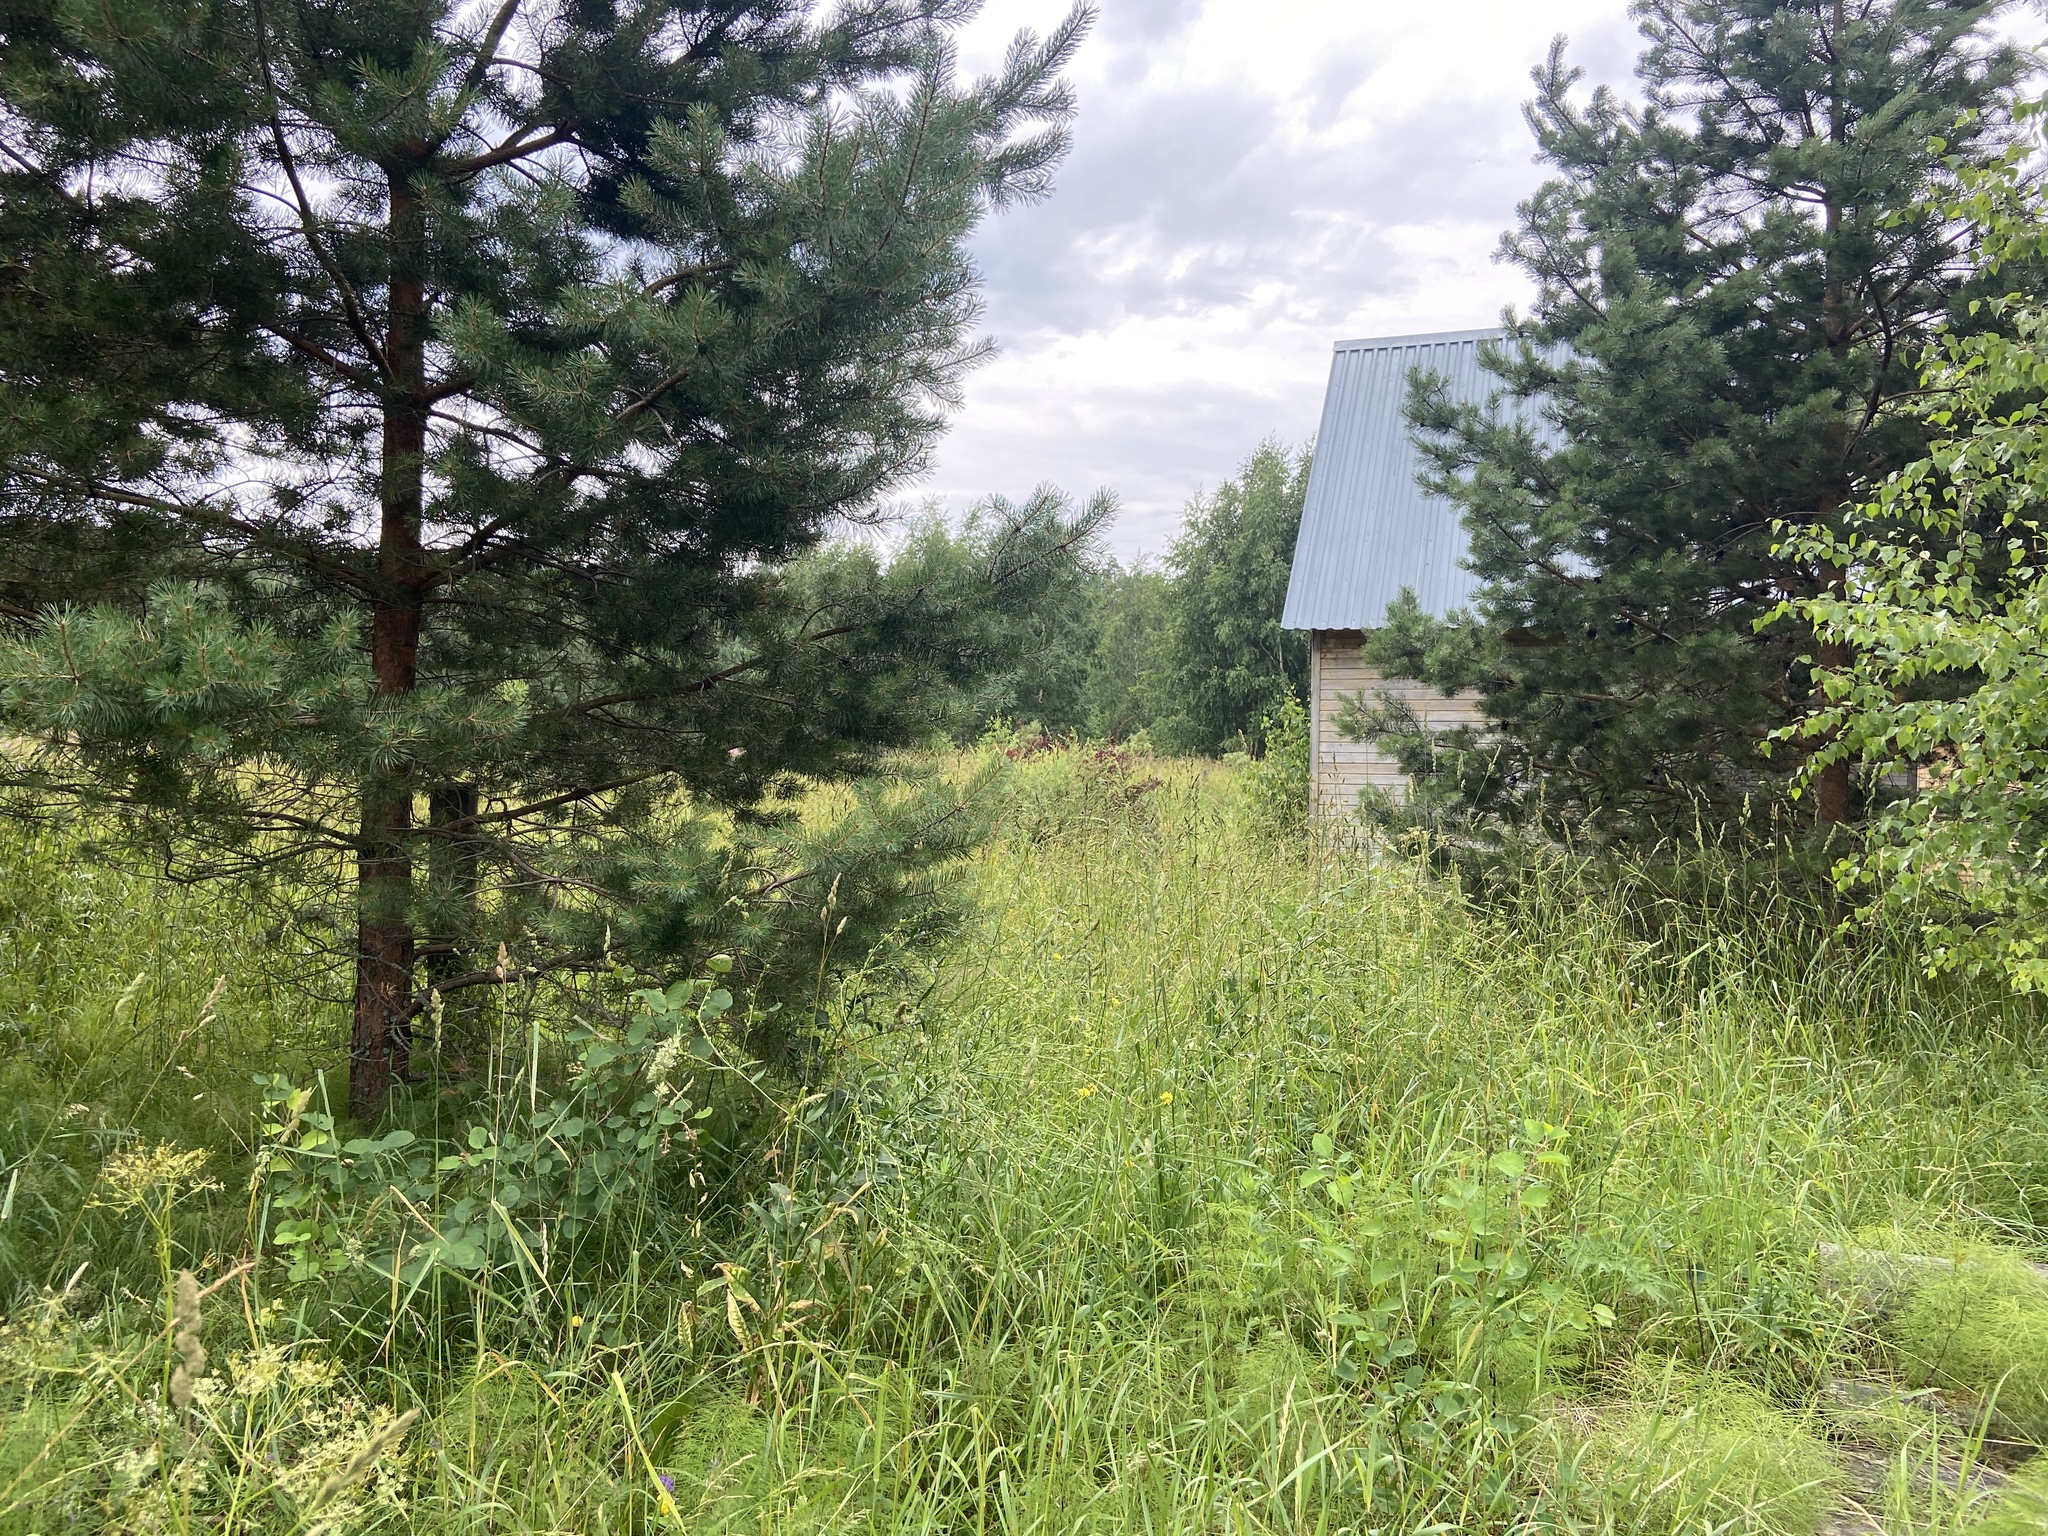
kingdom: Plantae
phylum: Tracheophyta
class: Pinopsida
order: Pinales
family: Pinaceae
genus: Pinus
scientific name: Pinus sylvestris
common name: Scots pine
